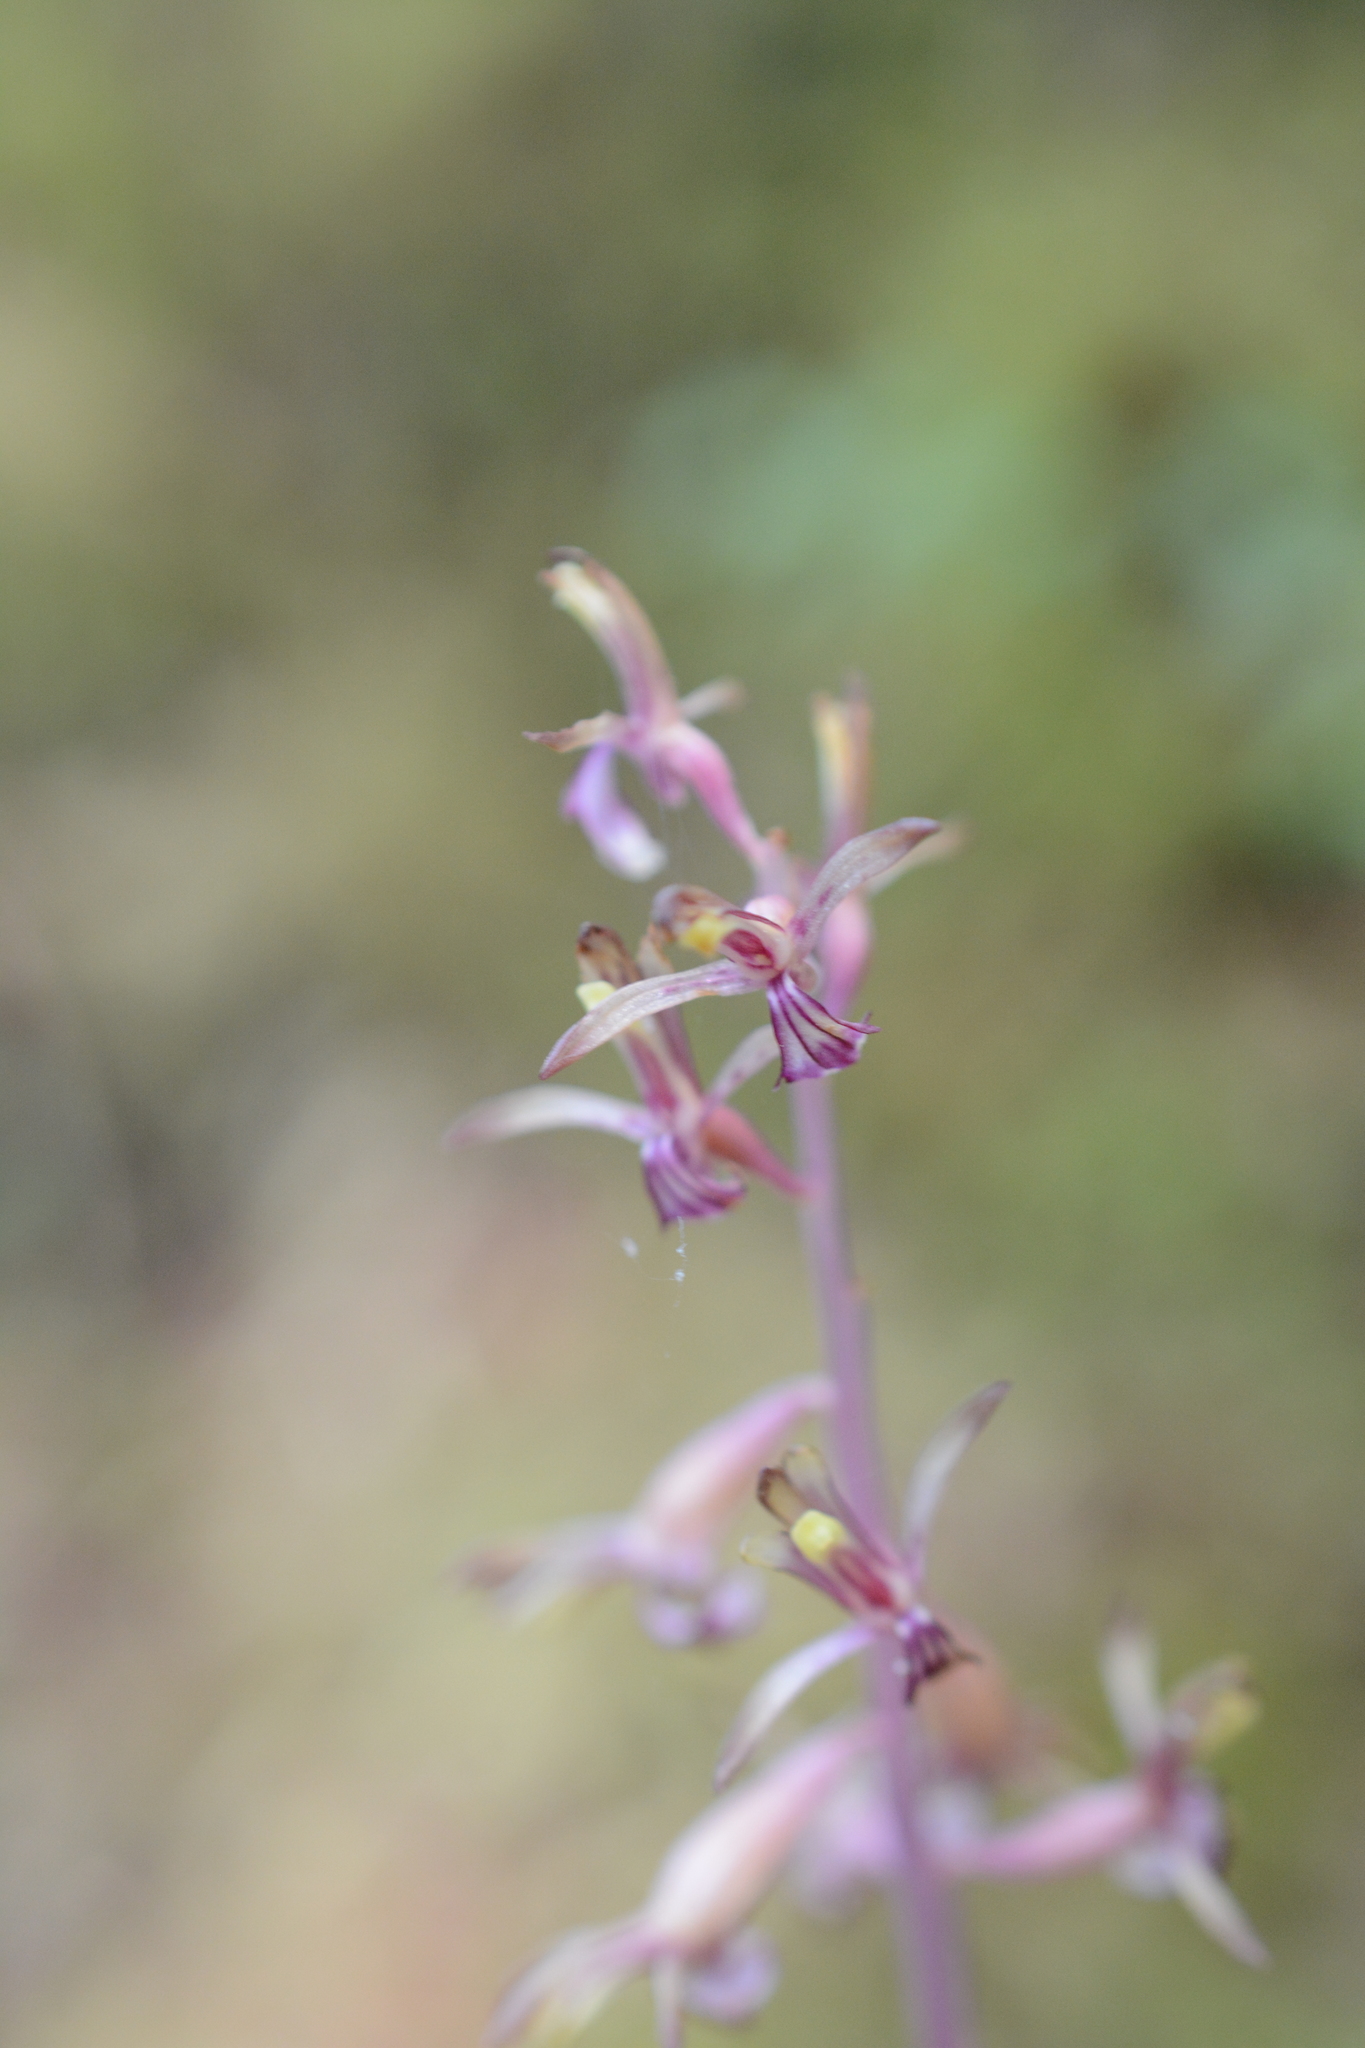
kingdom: Plantae
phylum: Tracheophyta
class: Liliopsida
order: Asparagales
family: Orchidaceae
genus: Corallorhiza
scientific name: Corallorhiza mertensiana
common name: Pacific coralroot
